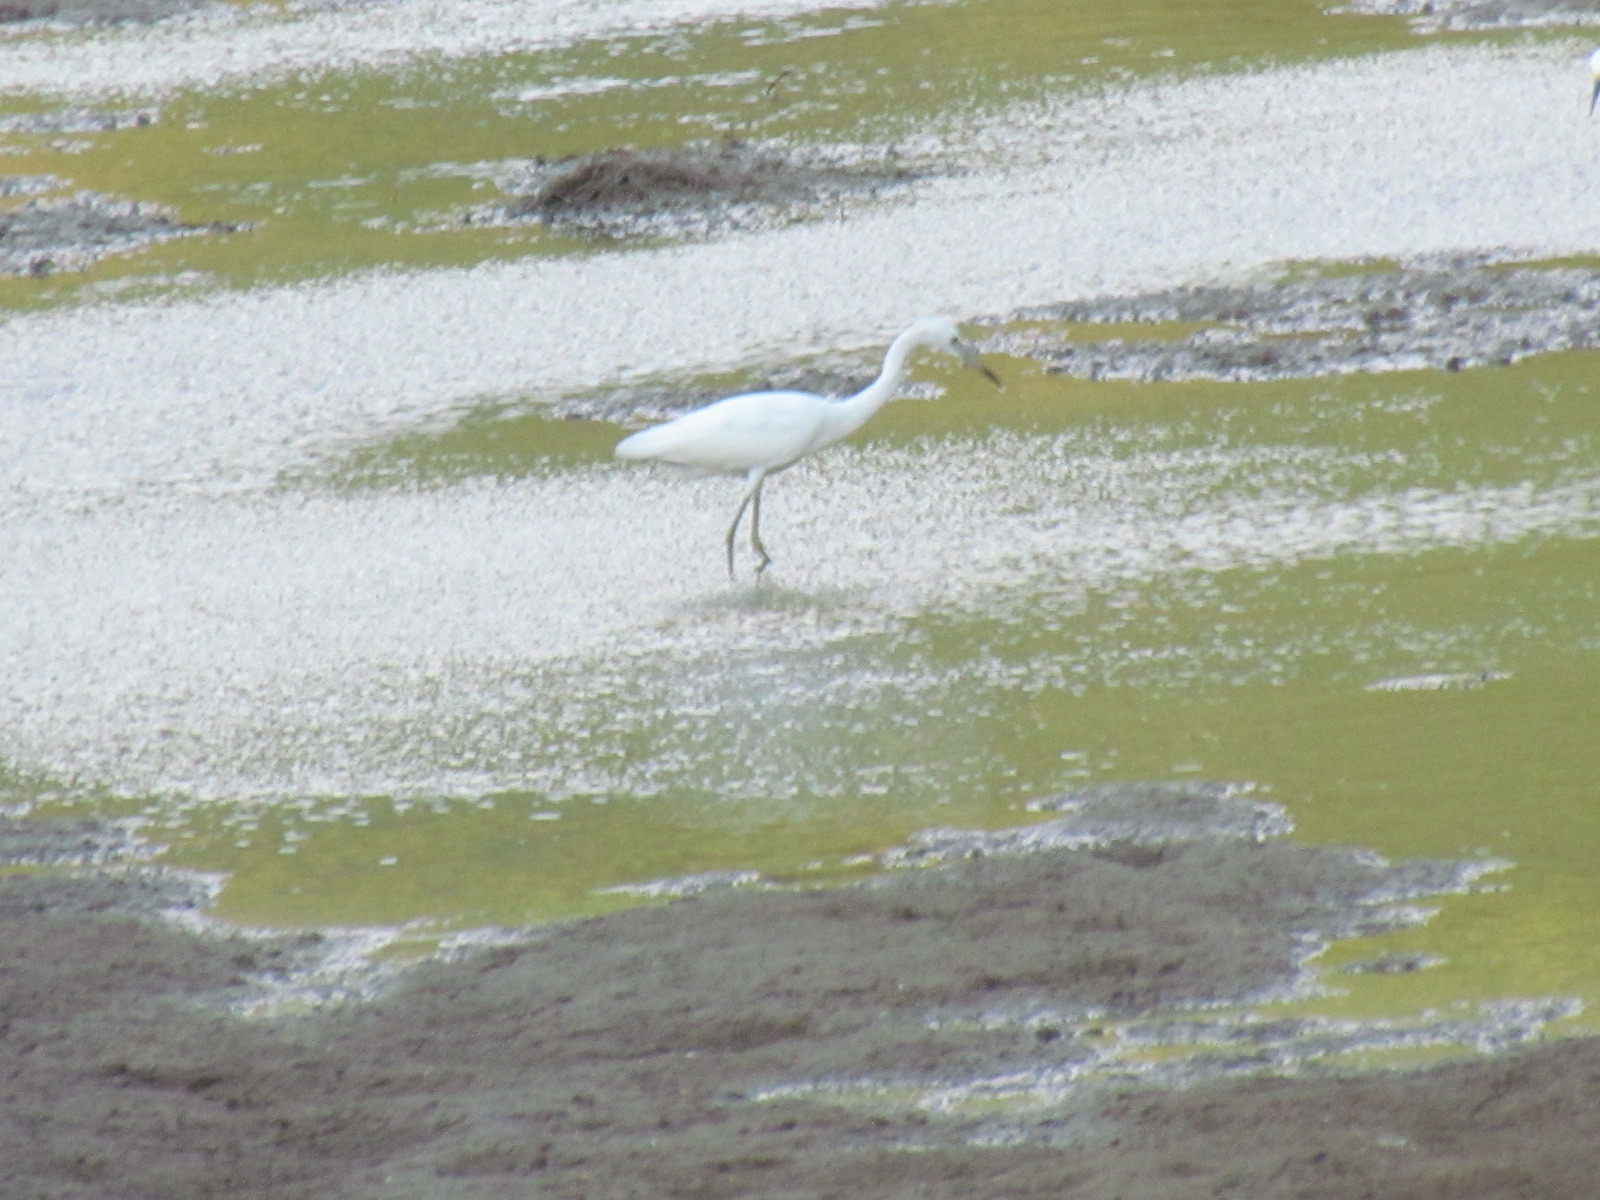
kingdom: Animalia
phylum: Chordata
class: Aves
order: Pelecaniformes
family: Ardeidae
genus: Egretta
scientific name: Egretta caerulea
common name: Little blue heron
